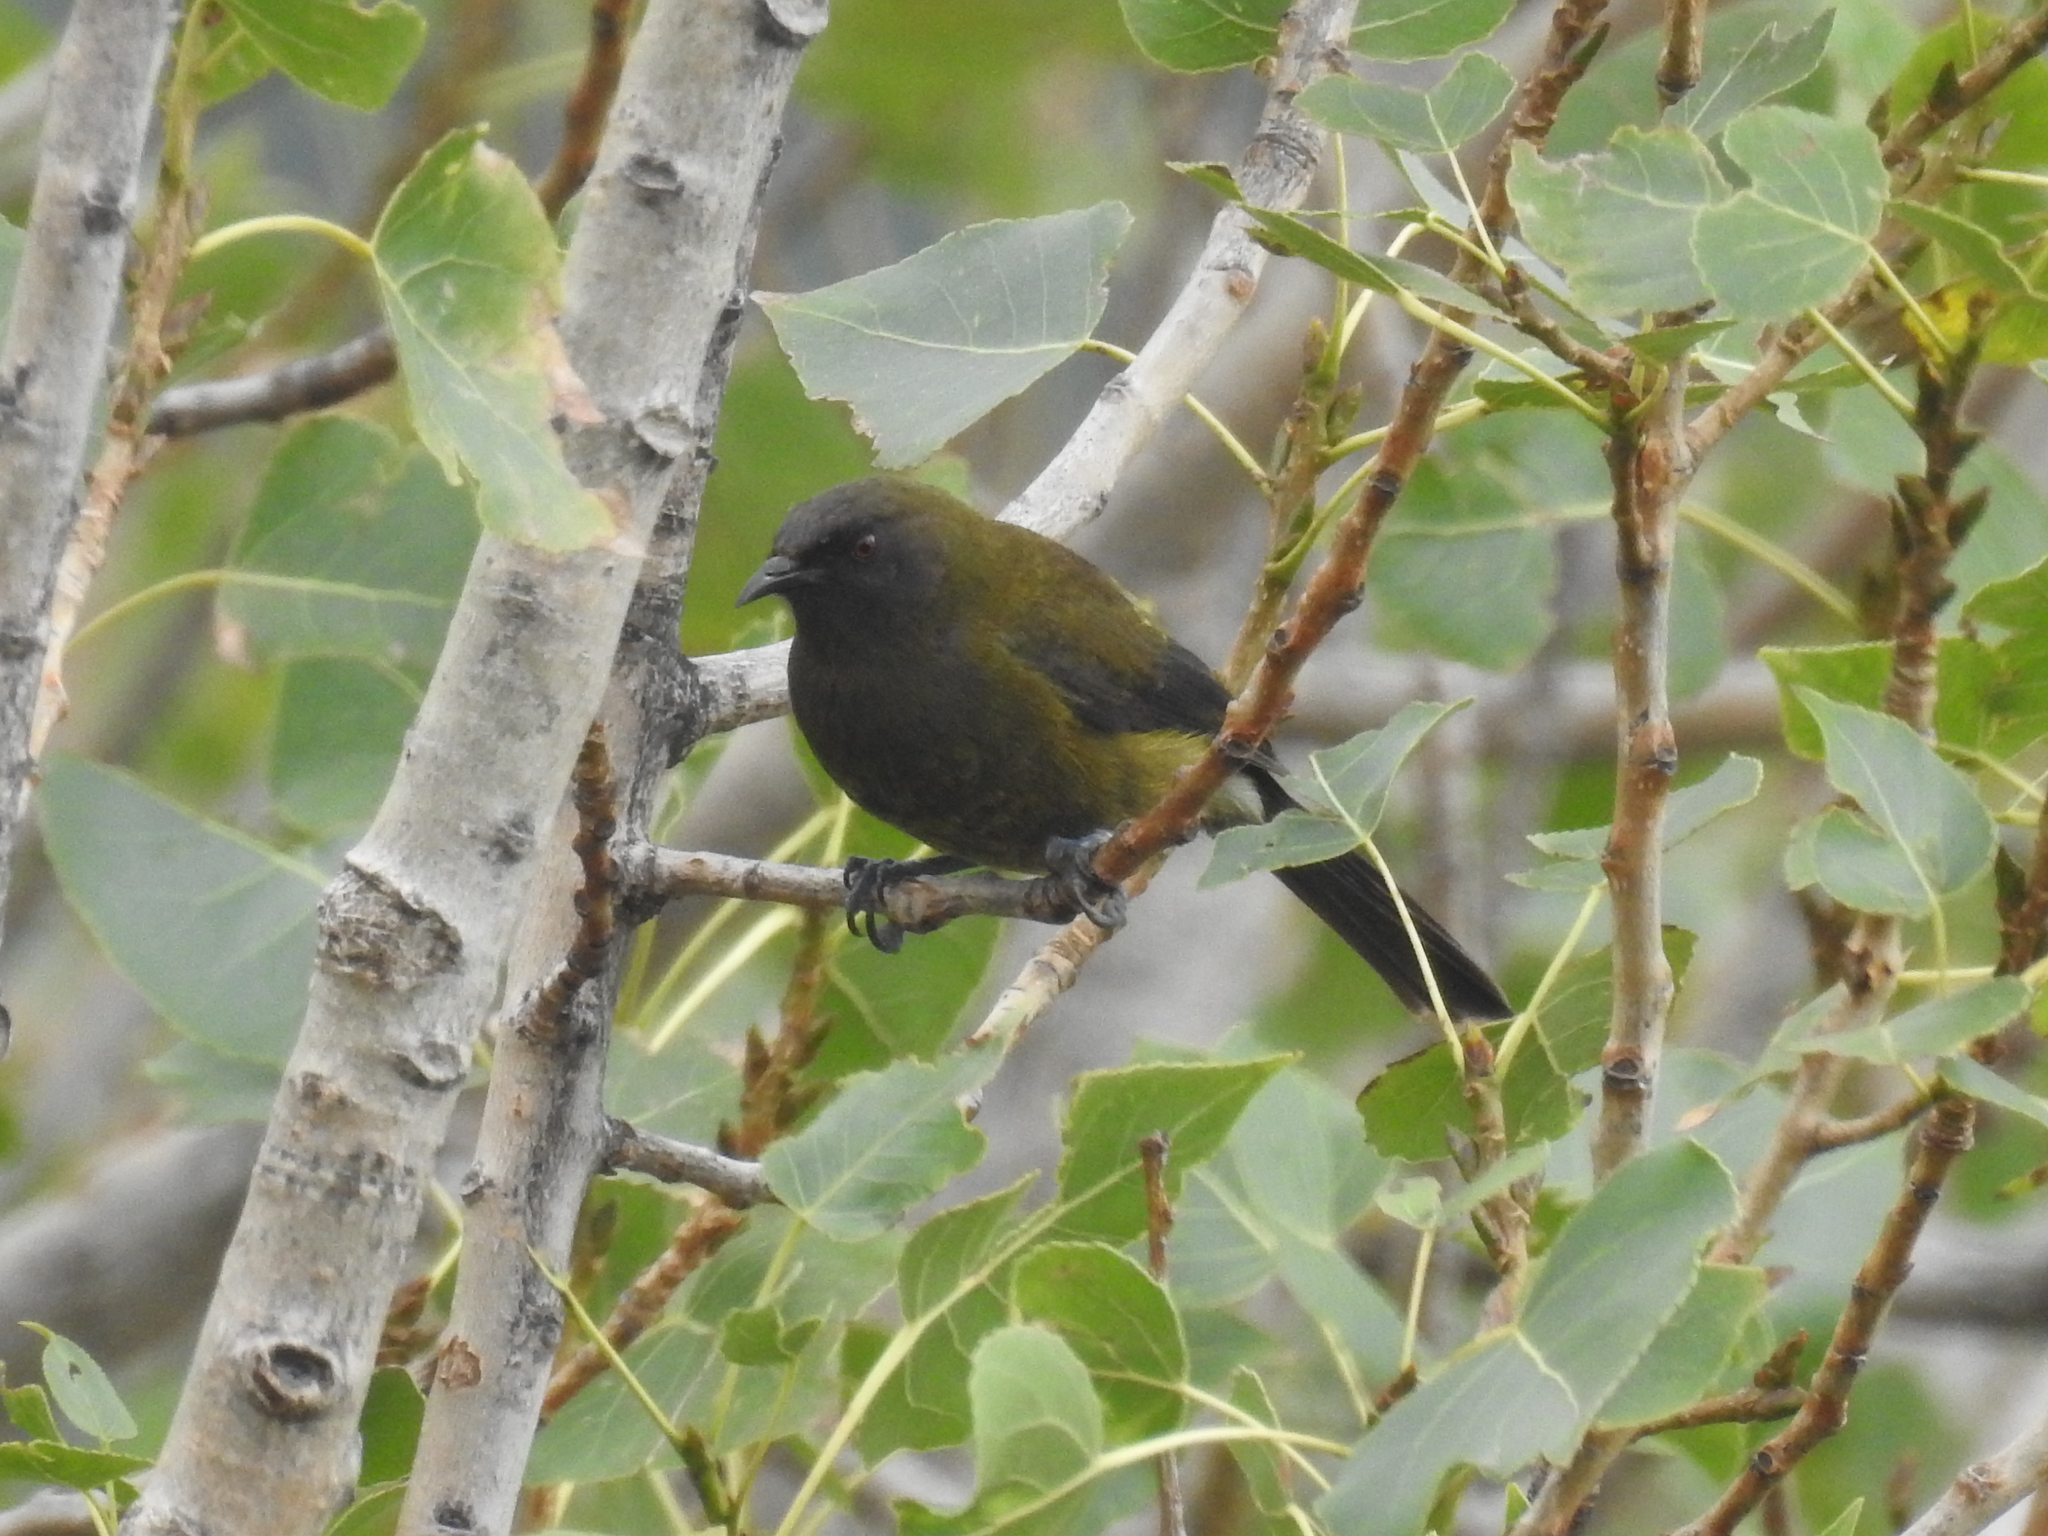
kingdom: Animalia
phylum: Chordata
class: Aves
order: Passeriformes
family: Meliphagidae
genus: Anthornis
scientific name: Anthornis melanura
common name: New zealand bellbird
